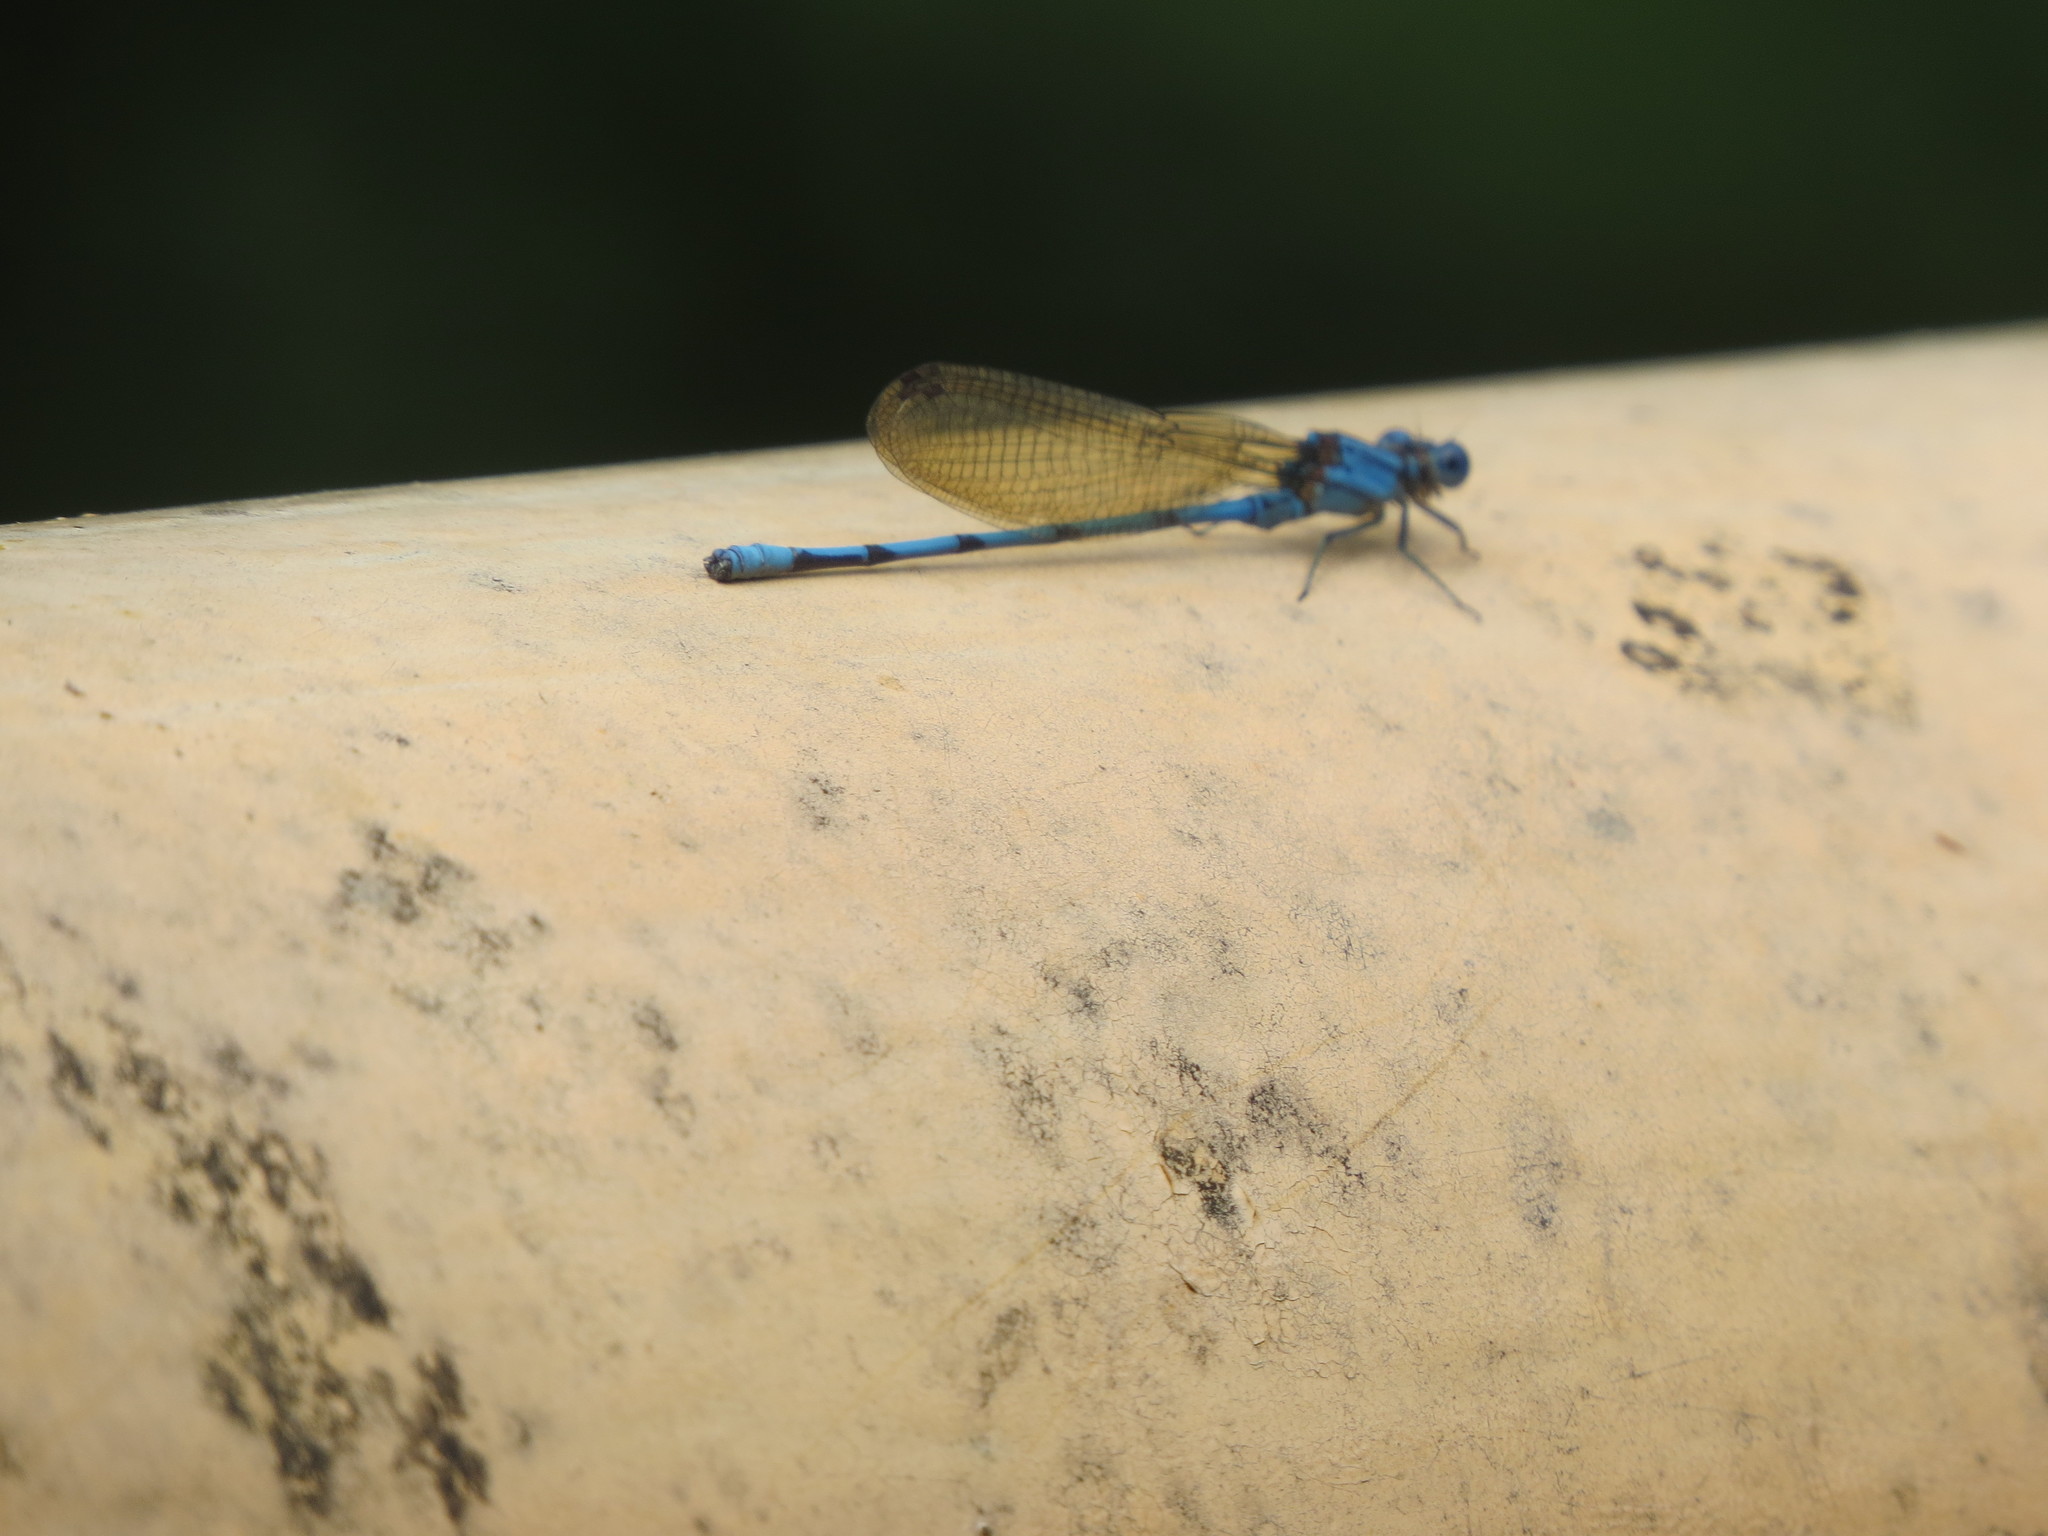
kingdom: Animalia
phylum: Arthropoda
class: Insecta
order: Odonata
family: Coenagrionidae
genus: Argia
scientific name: Argia anceps
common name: Cerulean dancer
